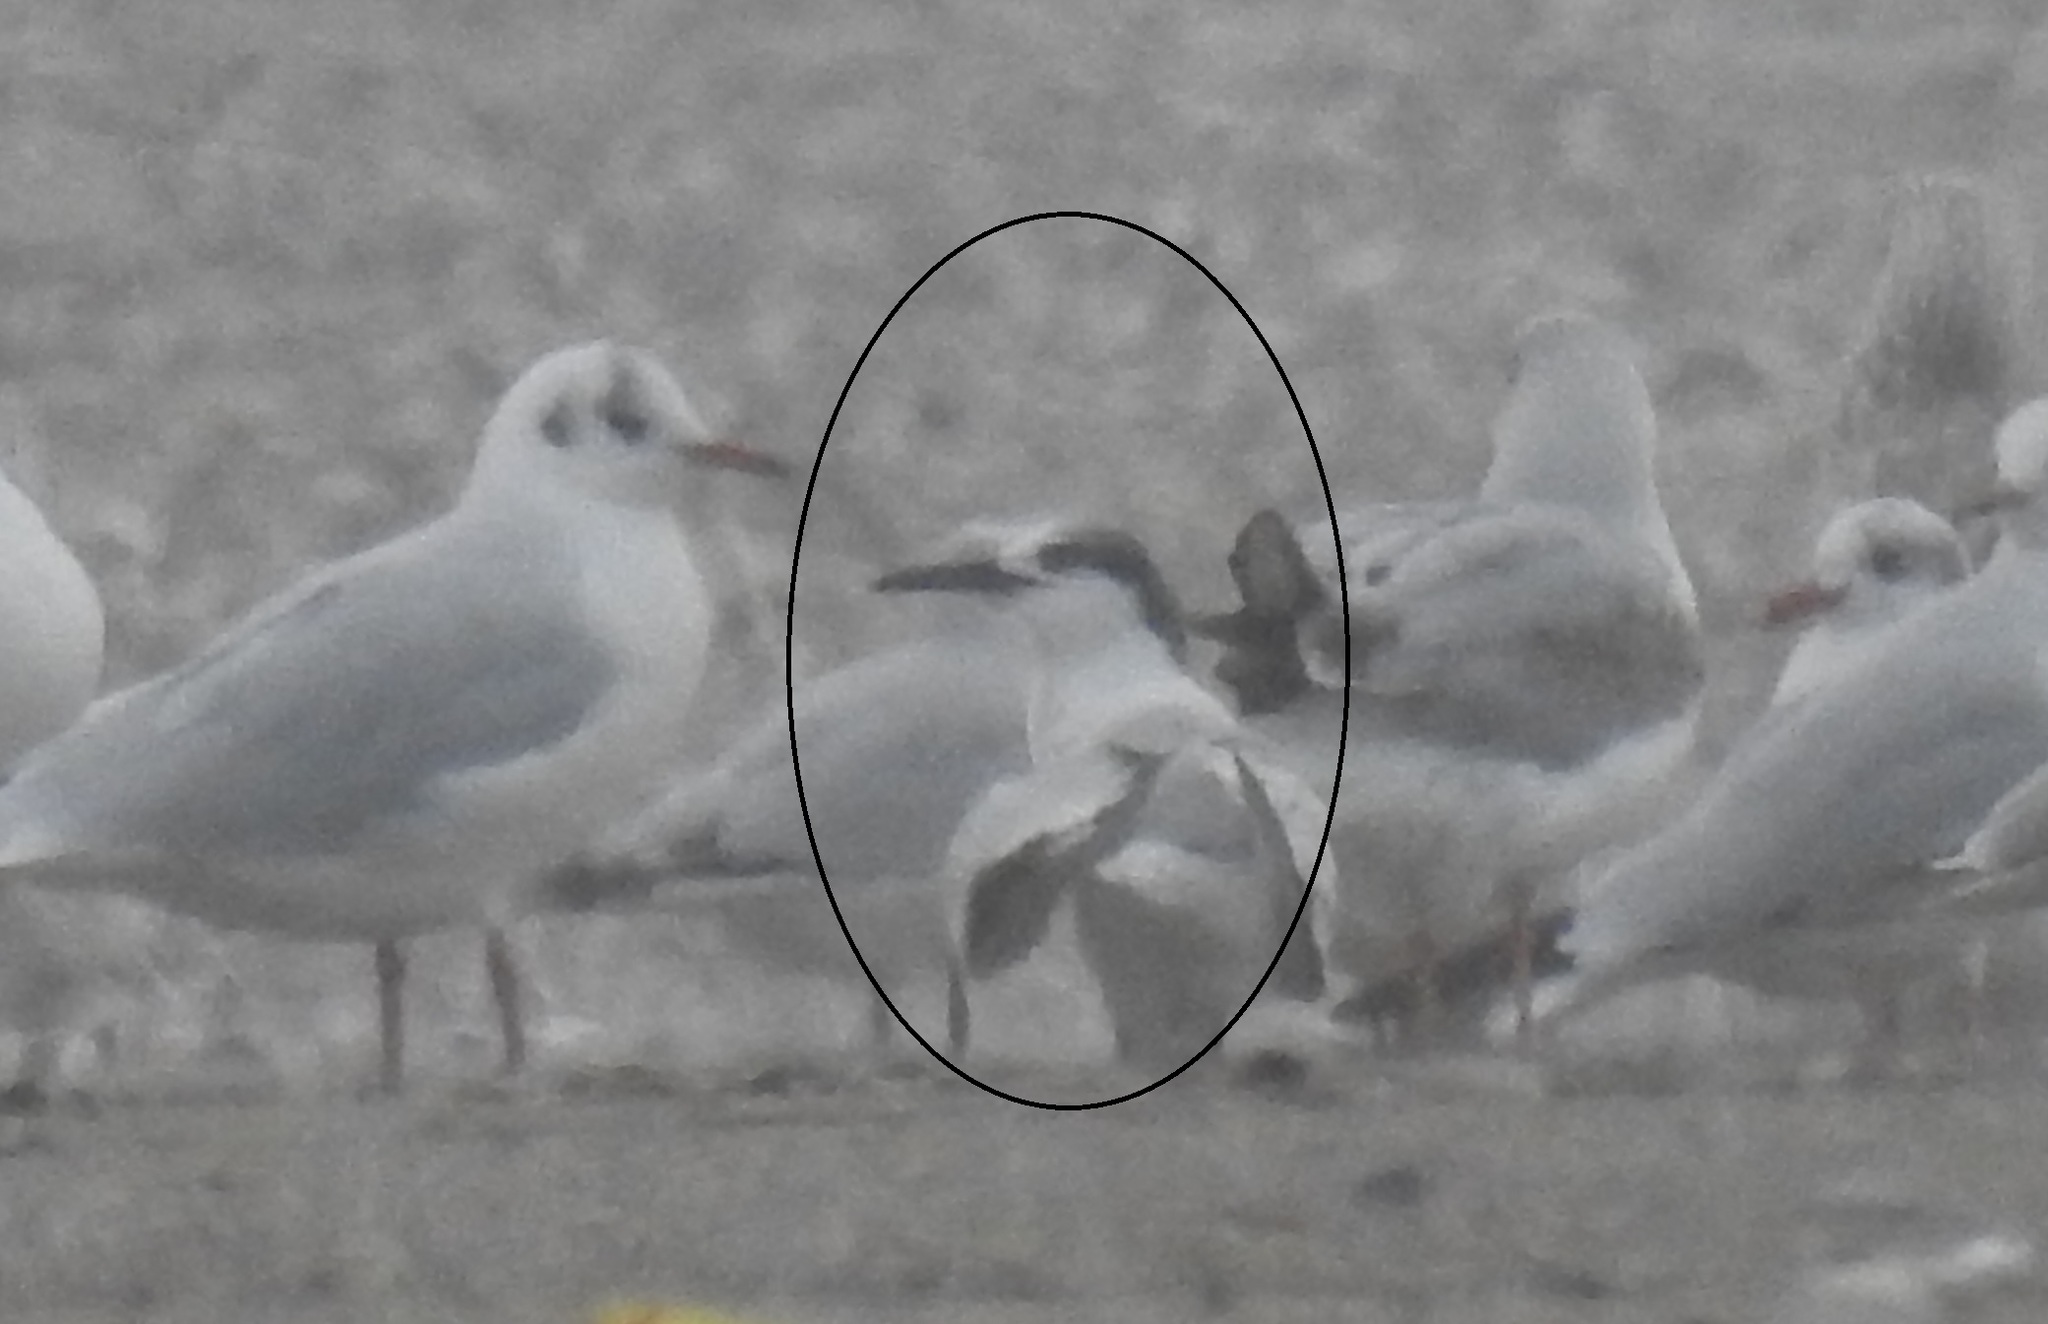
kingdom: Animalia
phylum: Chordata
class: Aves
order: Charadriiformes
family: Laridae
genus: Thalasseus
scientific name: Thalasseus sandvicensis
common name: Sandwich tern
